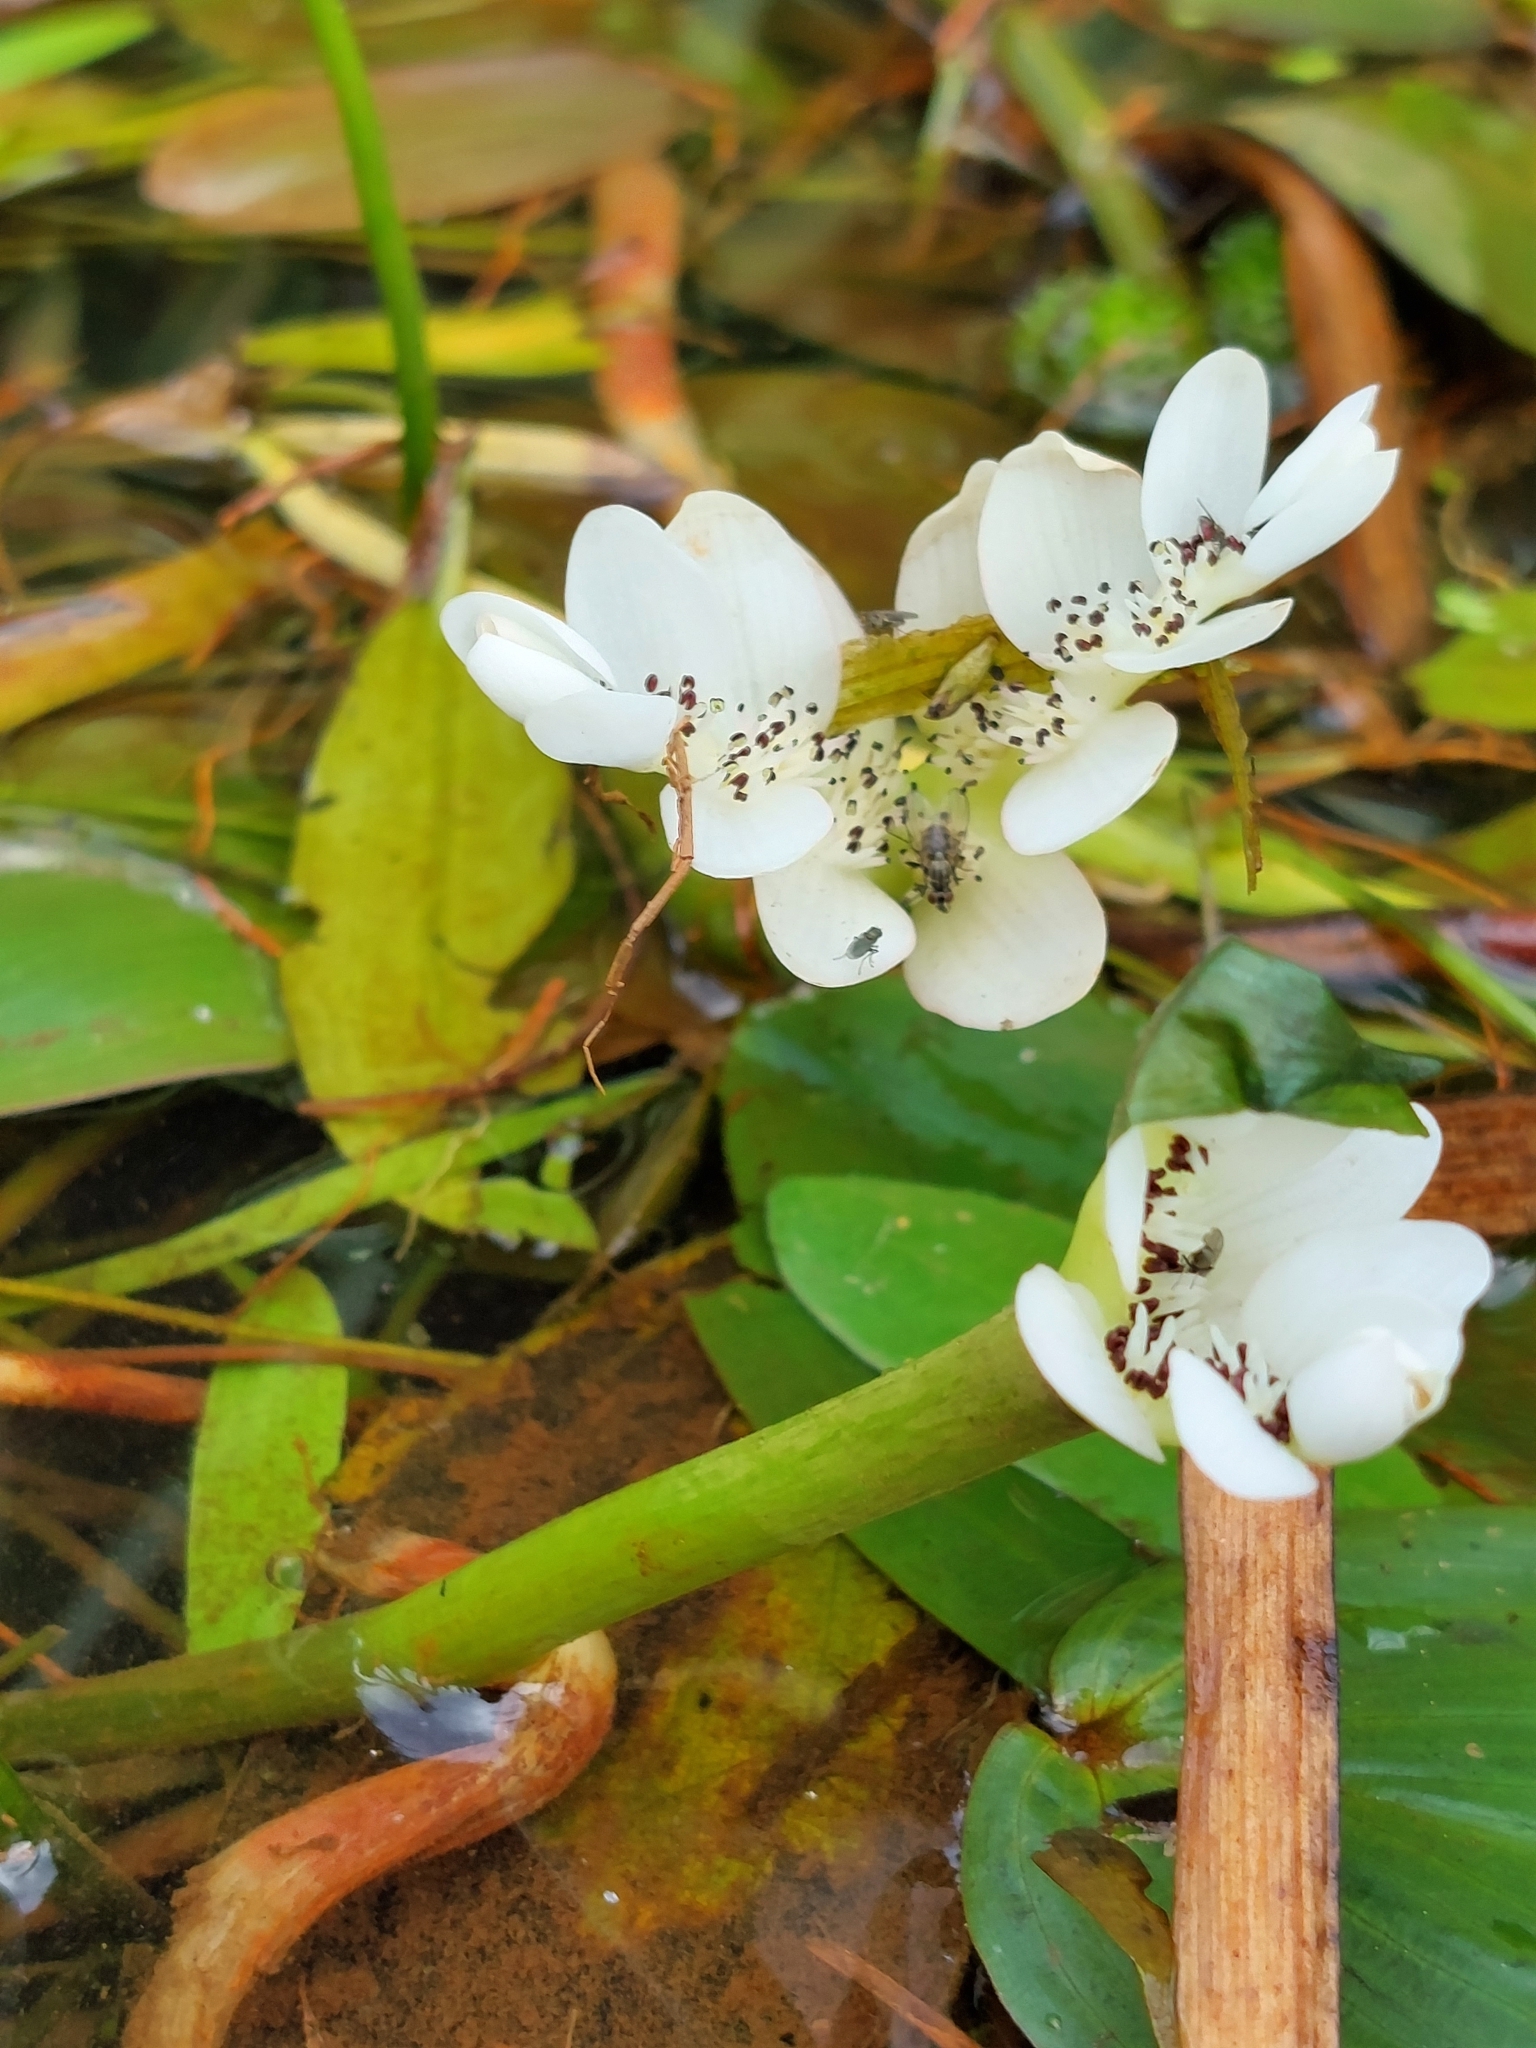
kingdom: Plantae
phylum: Tracheophyta
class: Liliopsida
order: Alismatales
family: Aponogetonaceae
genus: Aponogeton
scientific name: Aponogeton distachyos
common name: Cape-pondweed
